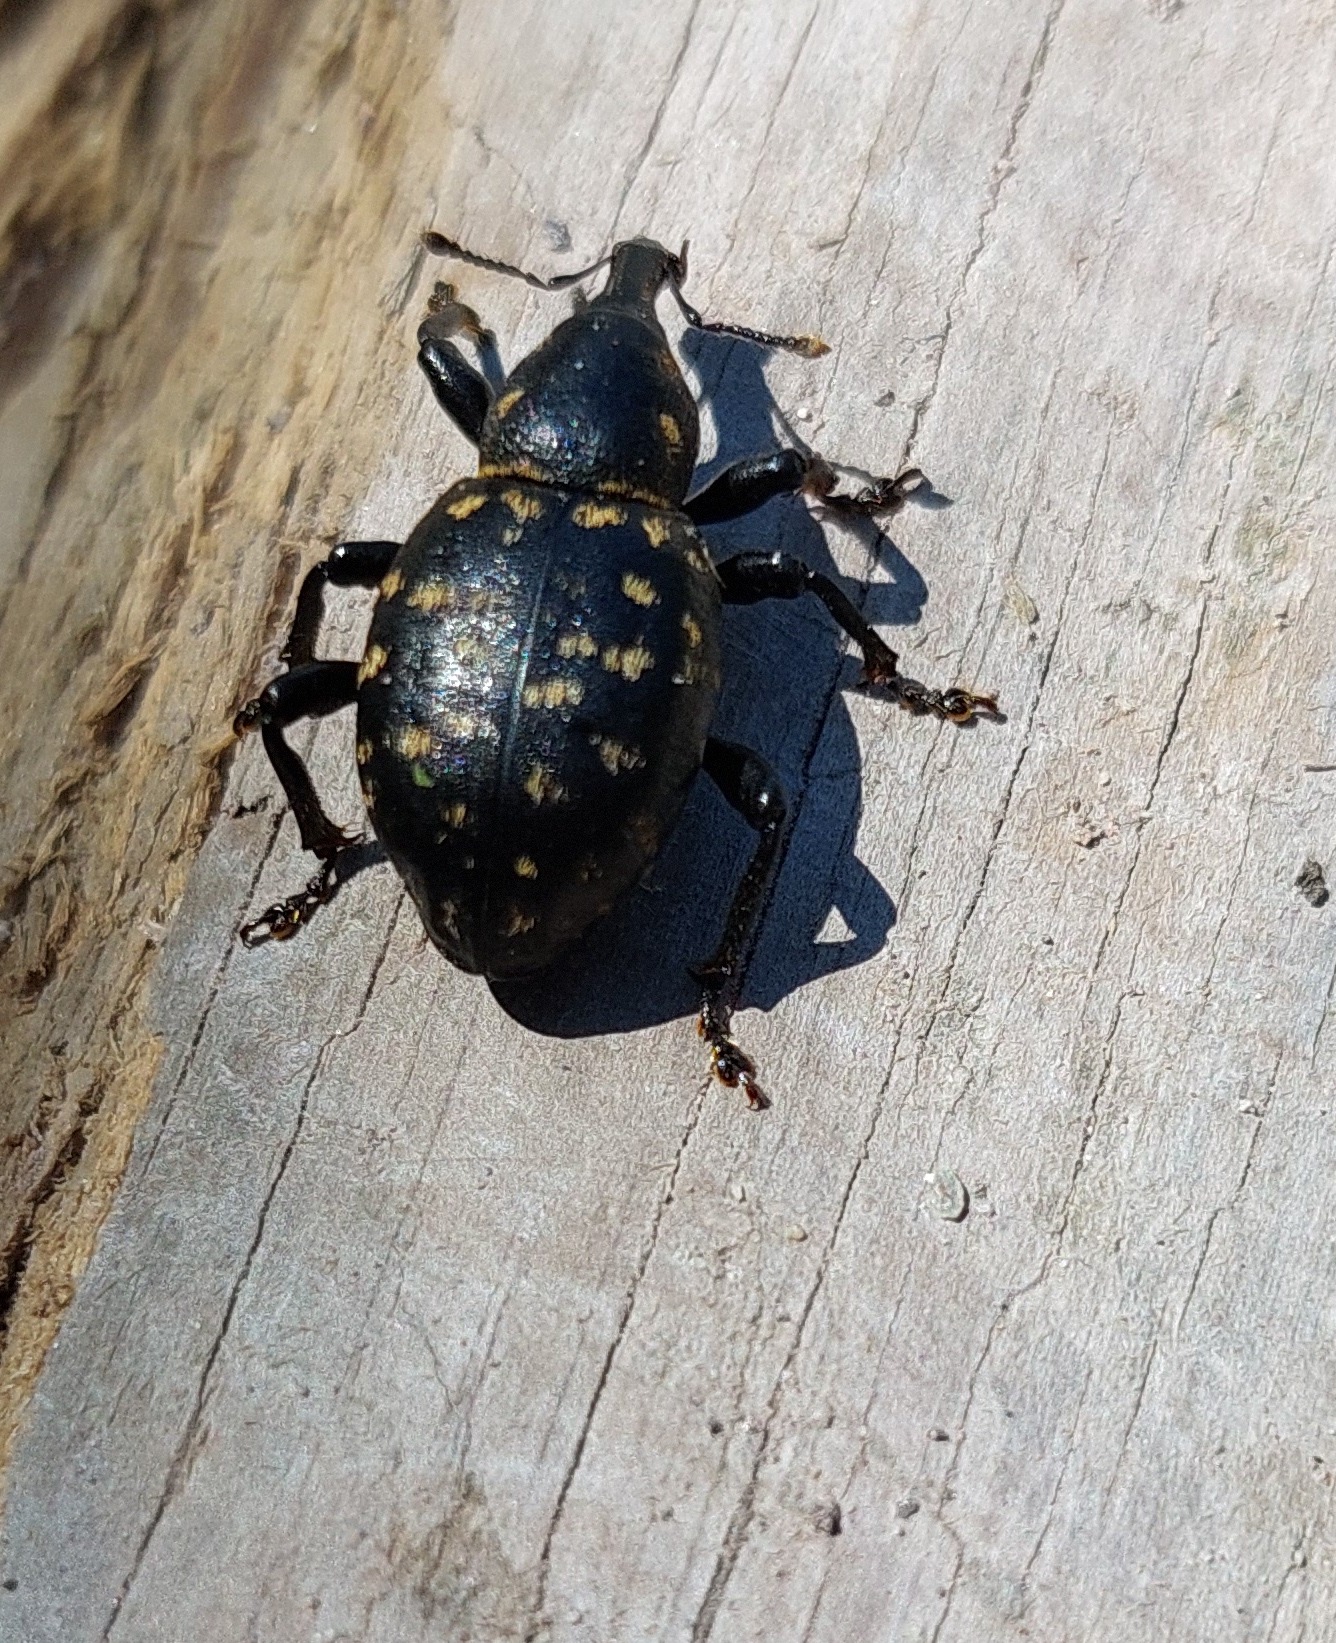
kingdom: Animalia
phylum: Arthropoda
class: Insecta
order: Coleoptera
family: Curculionidae
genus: Liparus
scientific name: Liparus germanus
